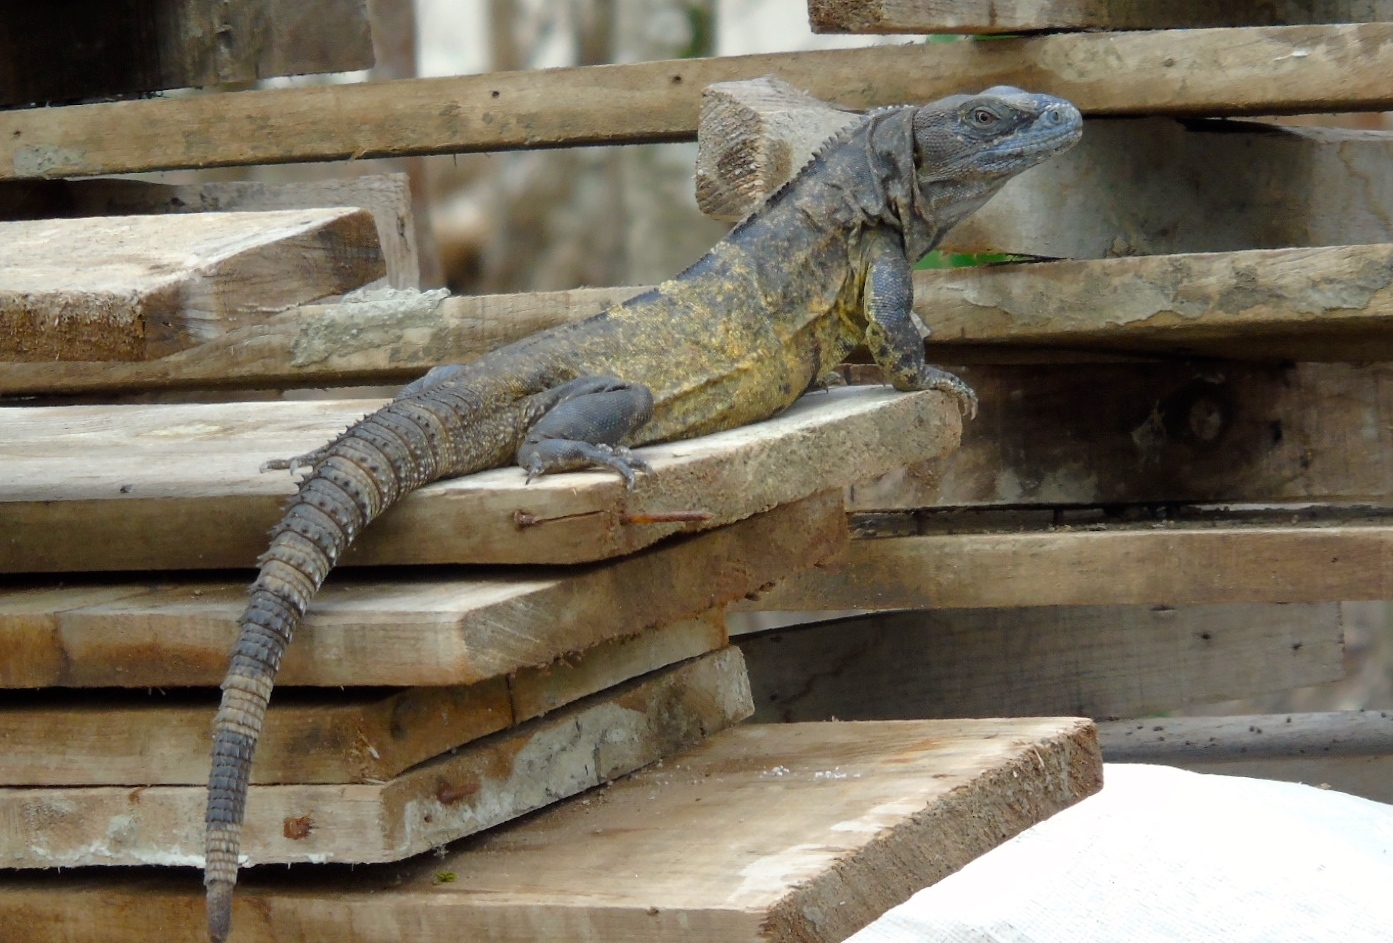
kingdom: Animalia
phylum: Chordata
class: Squamata
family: Iguanidae
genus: Ctenosaura
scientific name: Ctenosaura pectinata
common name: Guerreran spiny-tailed iguana
